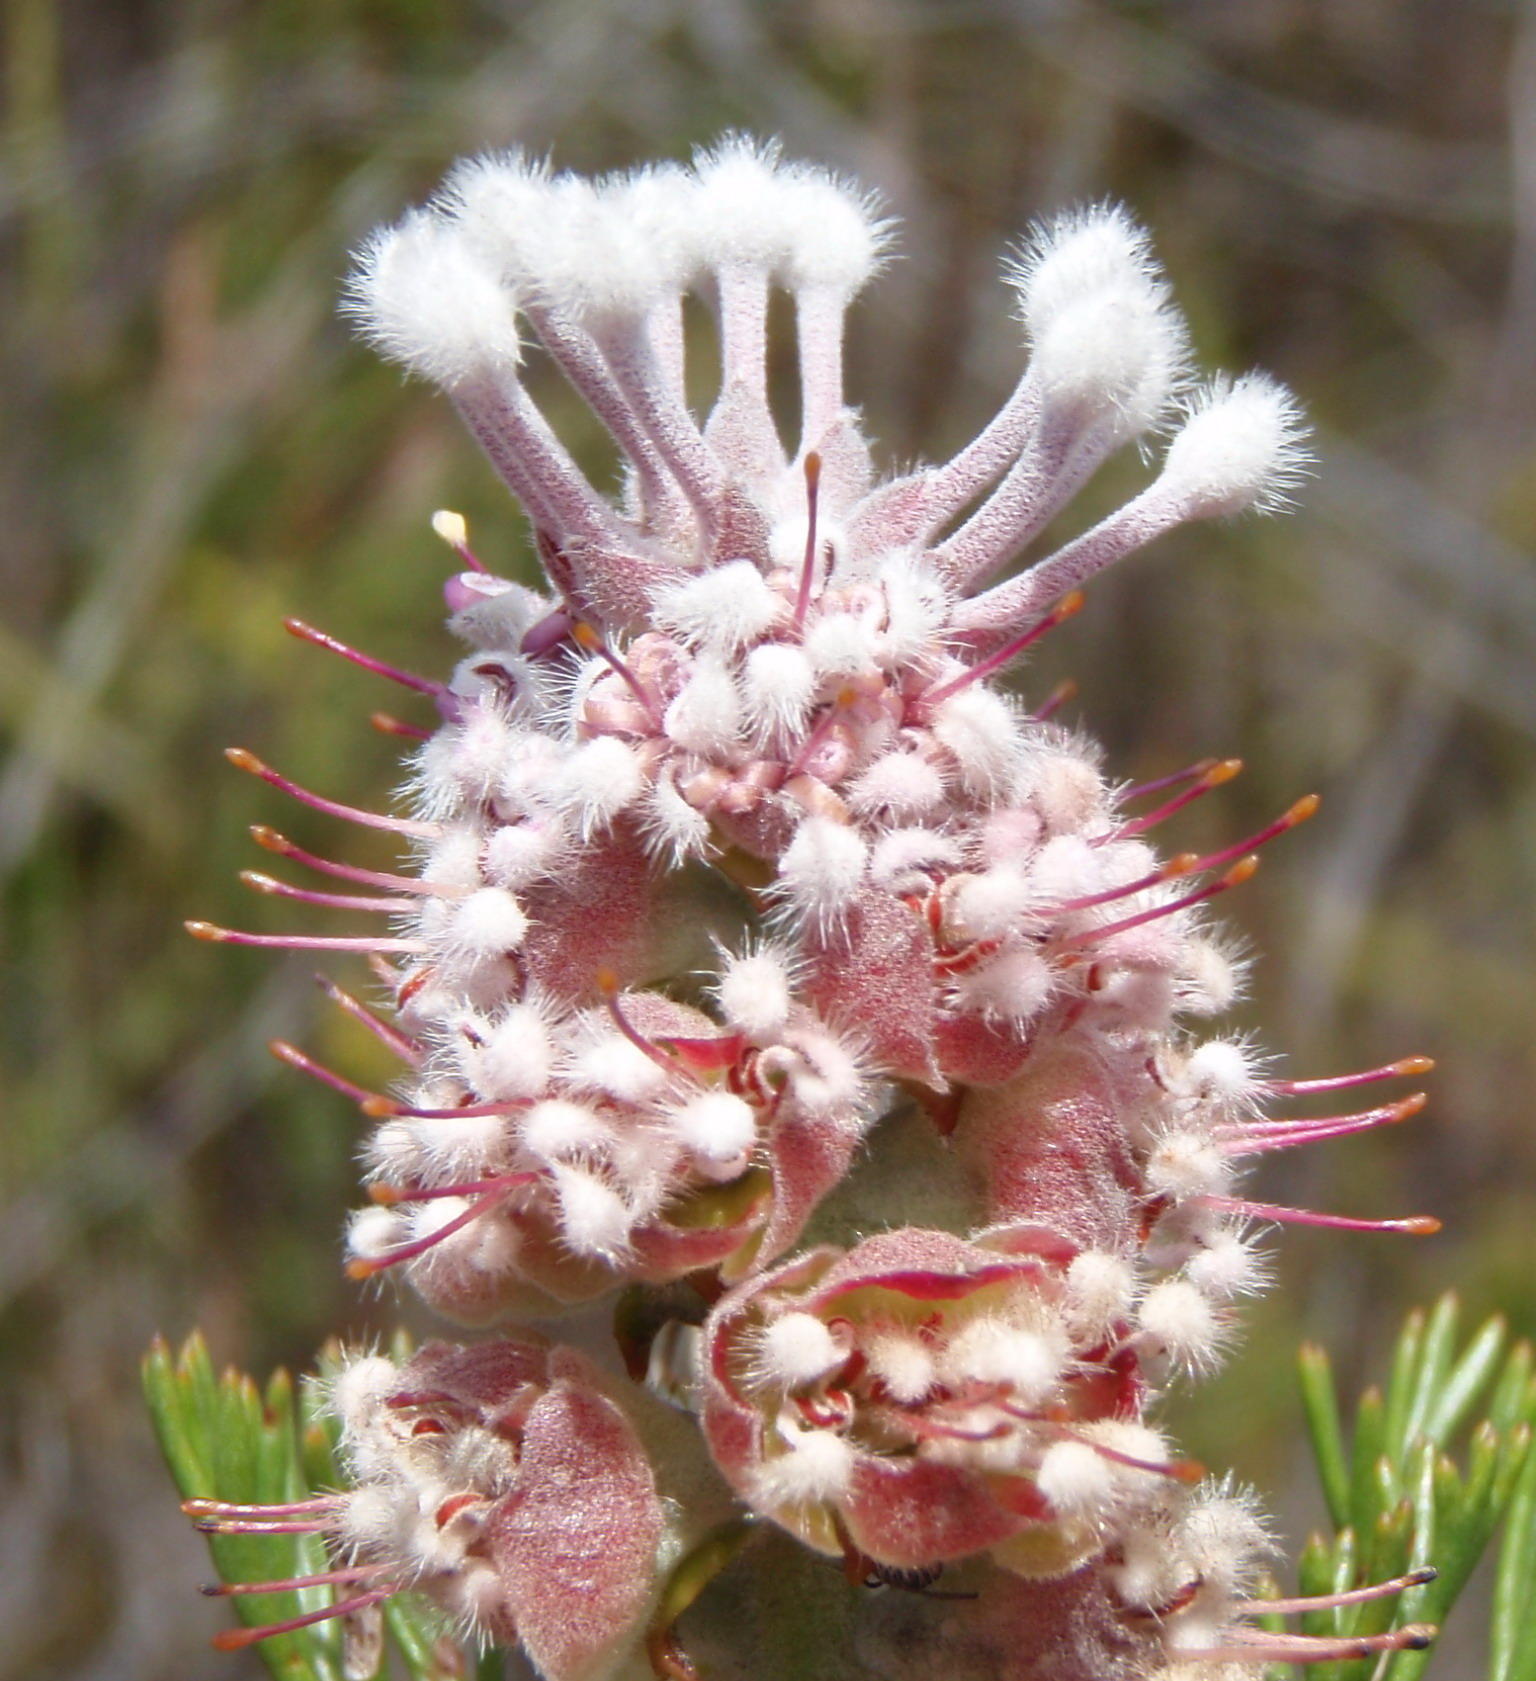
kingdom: Plantae
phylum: Tracheophyta
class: Magnoliopsida
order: Proteales
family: Proteaceae
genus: Paranomus
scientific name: Paranomus abrotanifolius
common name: Bredasdorp sceptre
